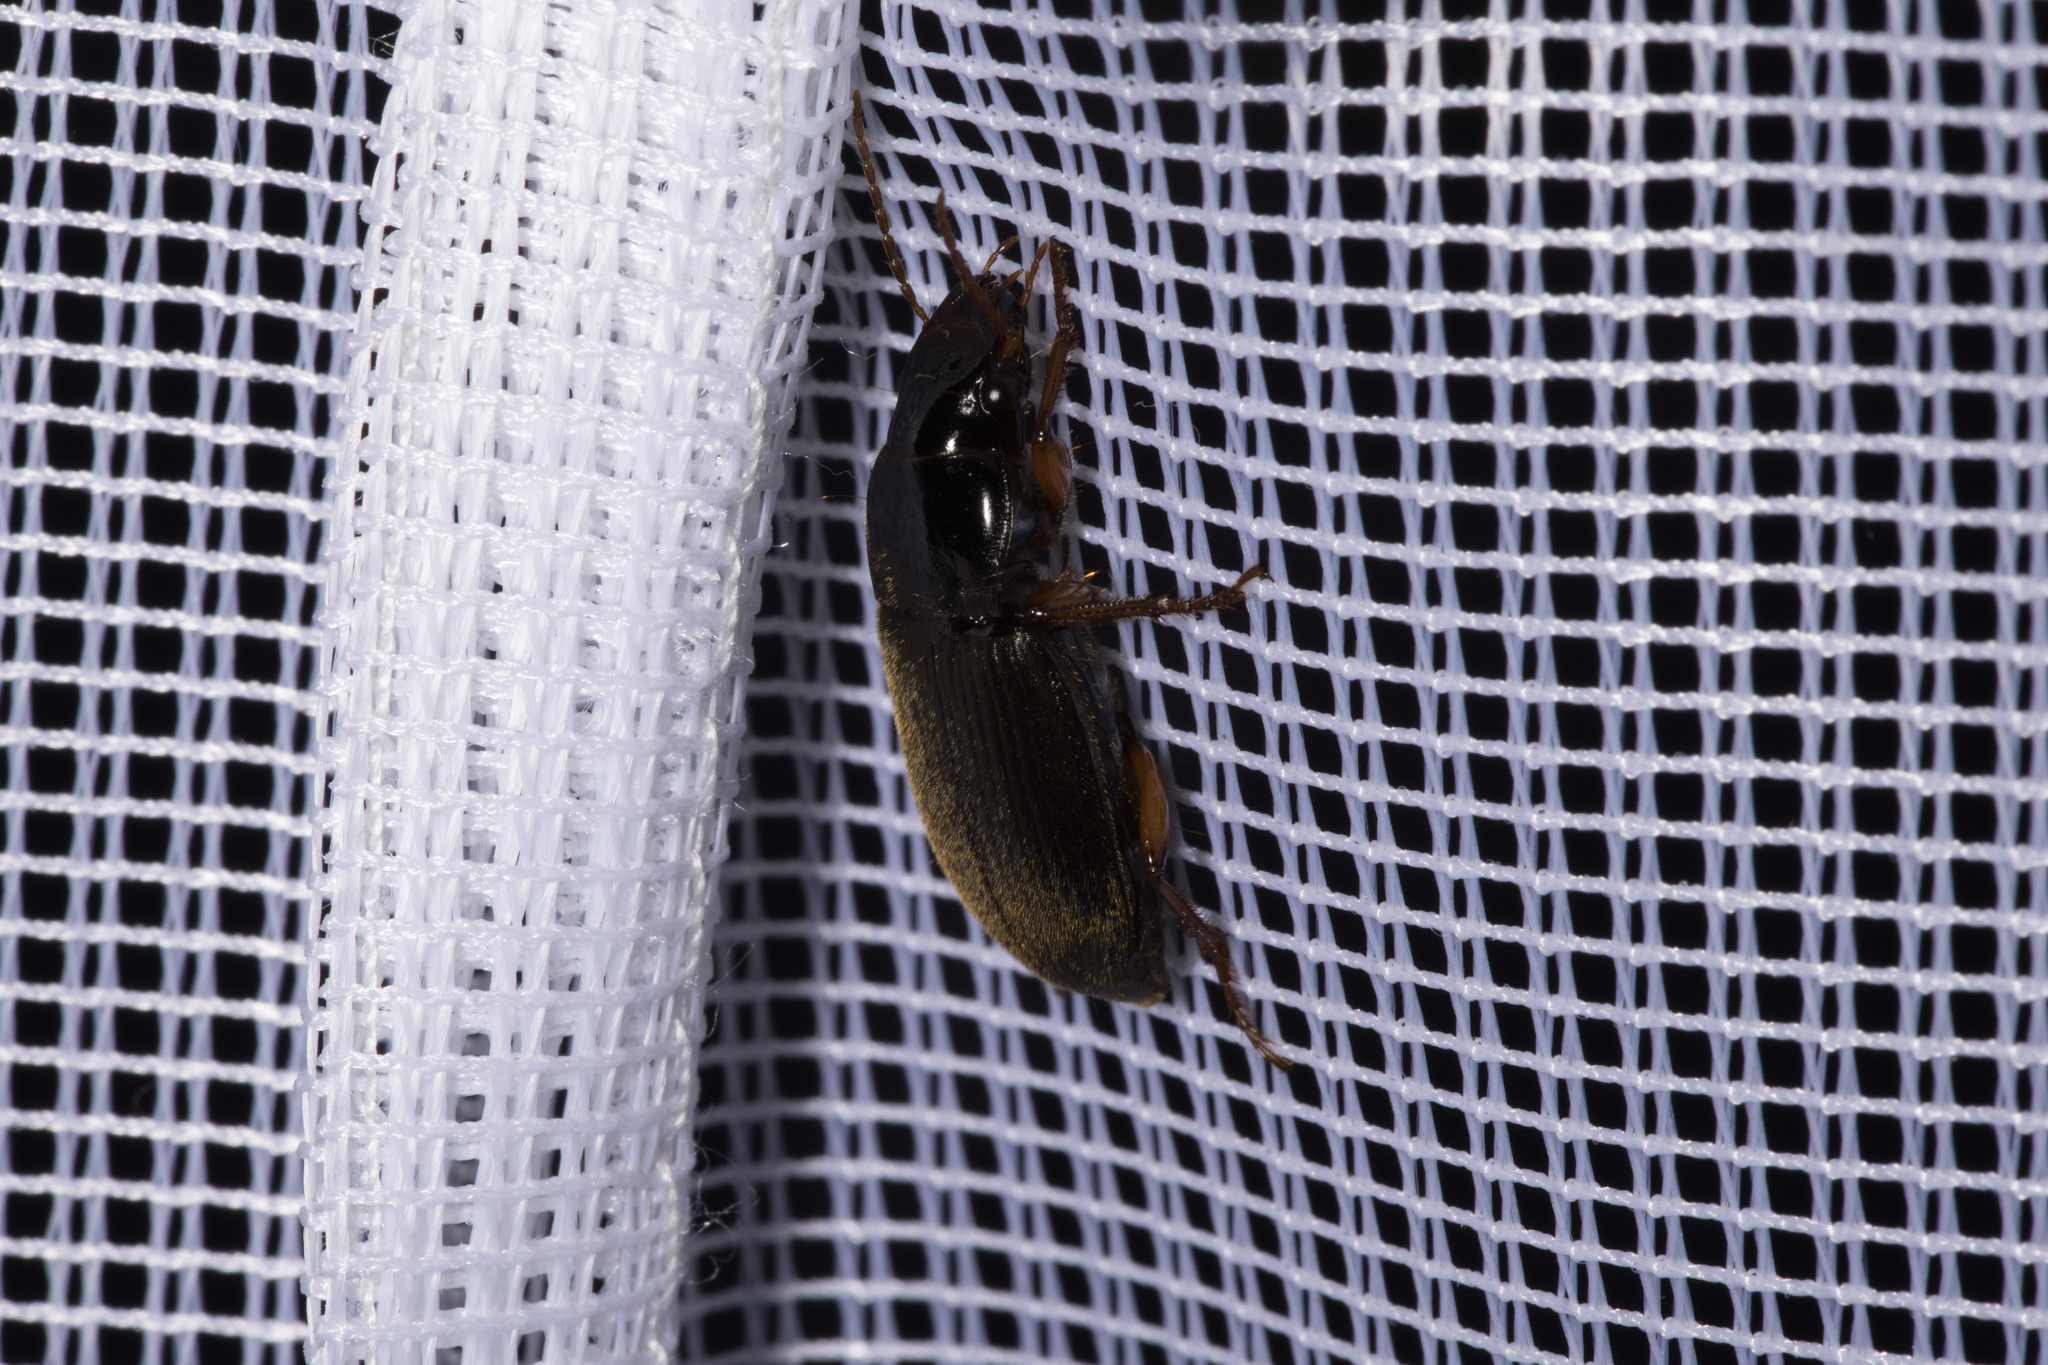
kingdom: Animalia
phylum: Arthropoda
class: Insecta
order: Coleoptera
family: Carabidae
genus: Harpalus
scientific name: Harpalus rufipes
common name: Strawberry harp ground beetle
